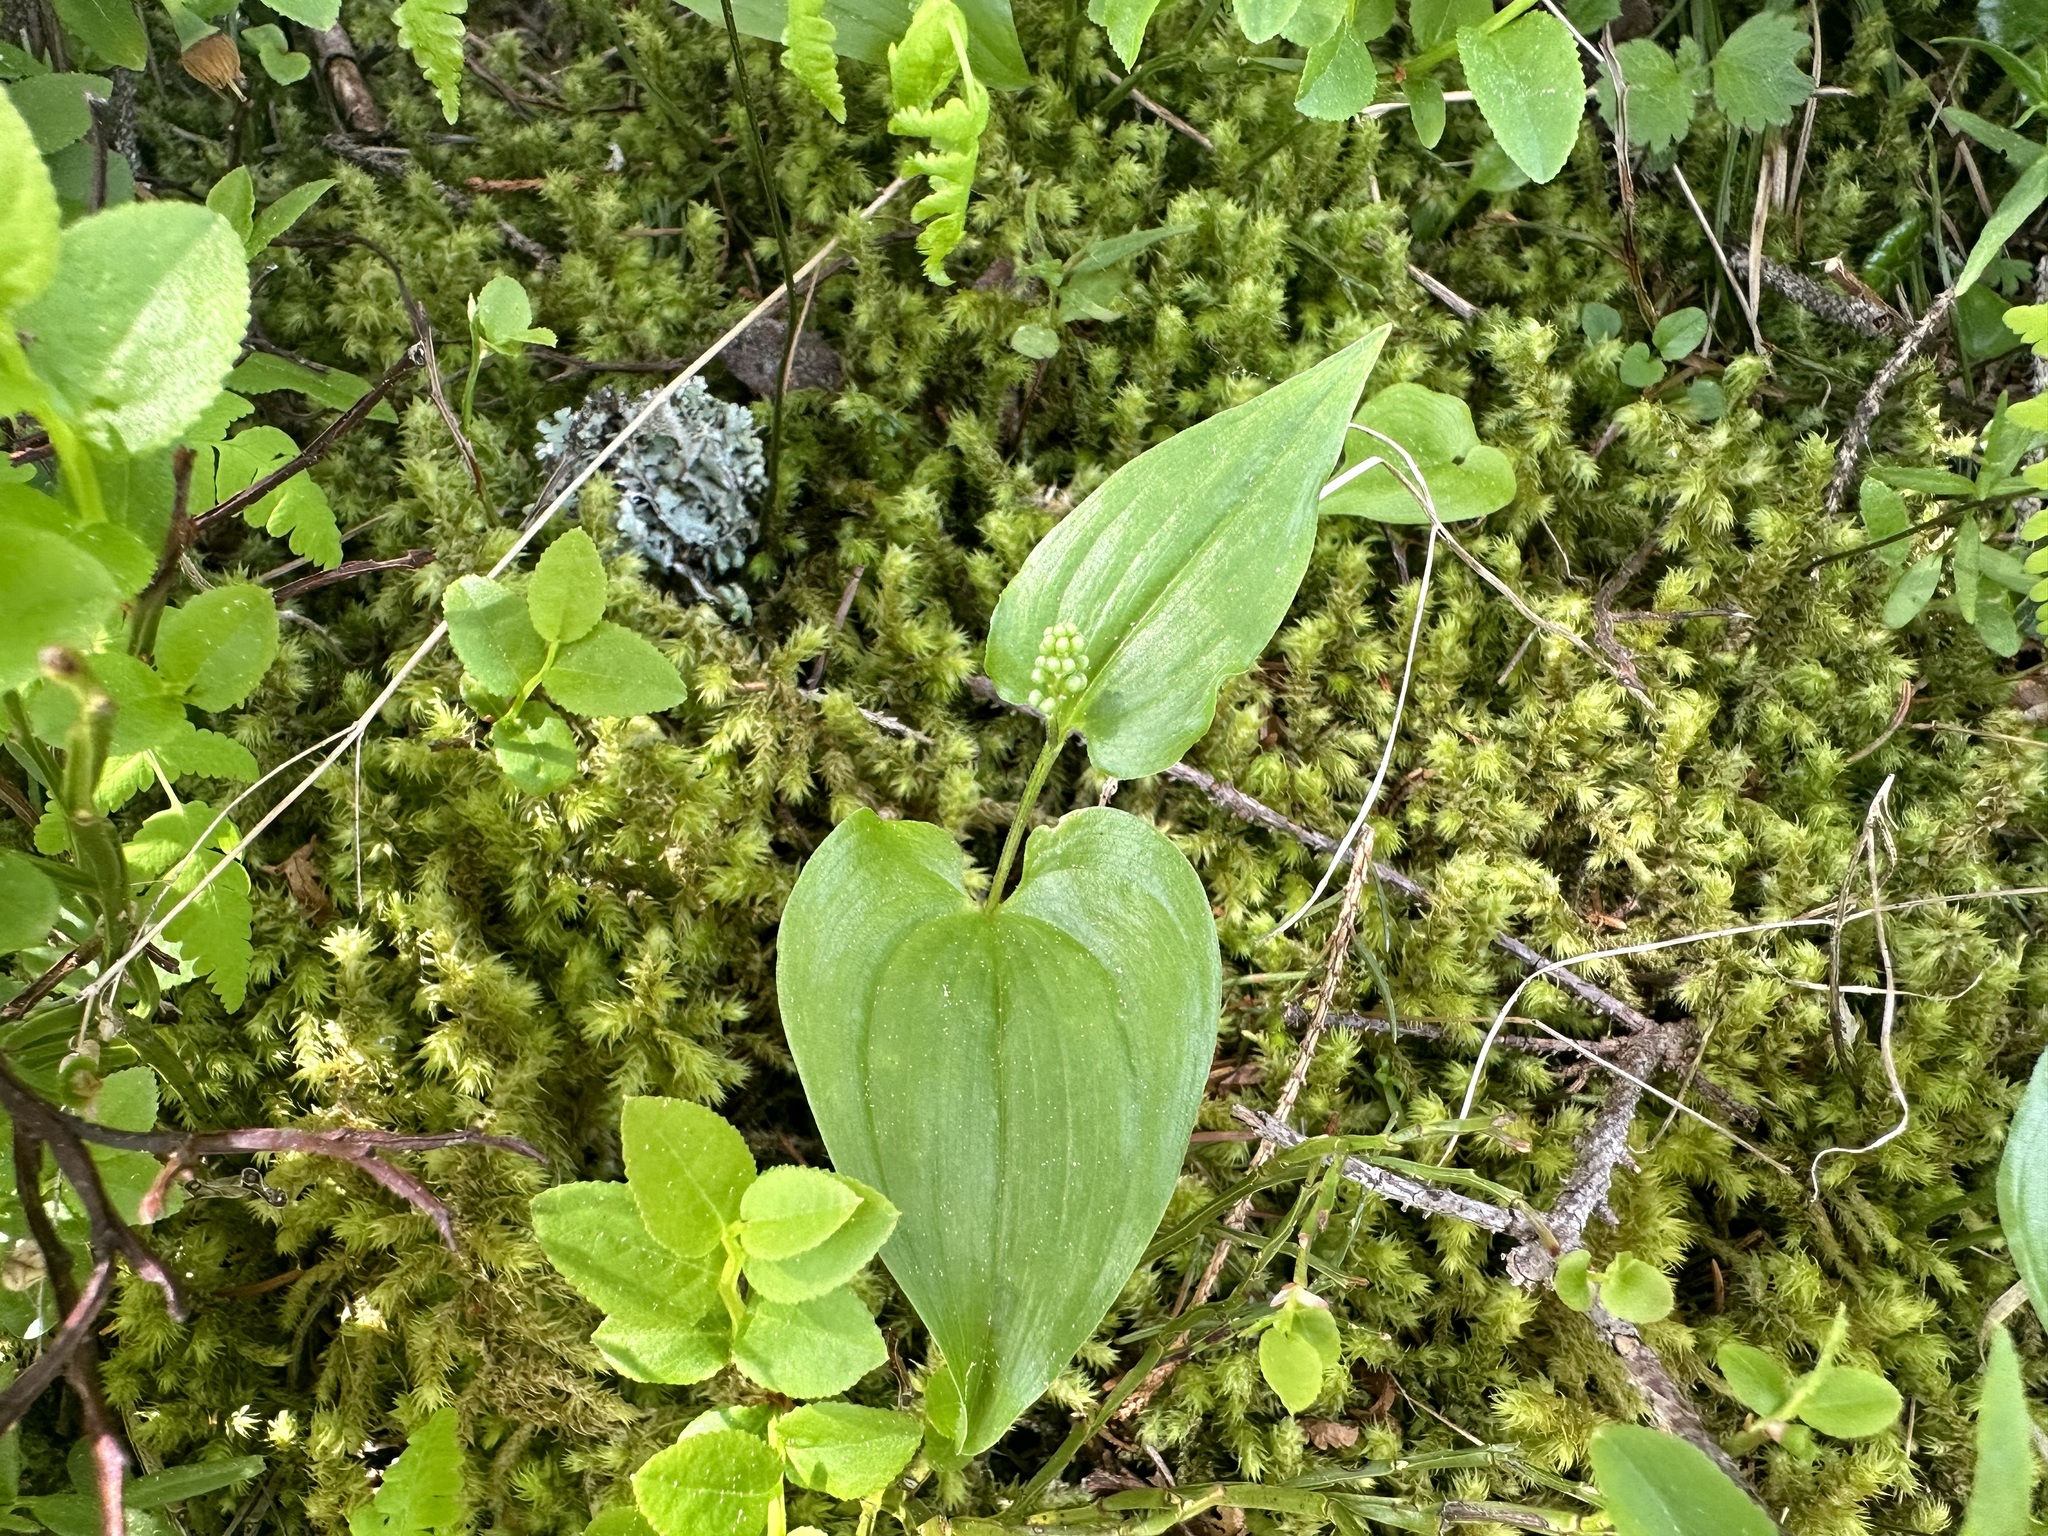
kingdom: Plantae
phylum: Tracheophyta
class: Liliopsida
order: Asparagales
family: Asparagaceae
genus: Maianthemum
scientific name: Maianthemum bifolium
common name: May lily
